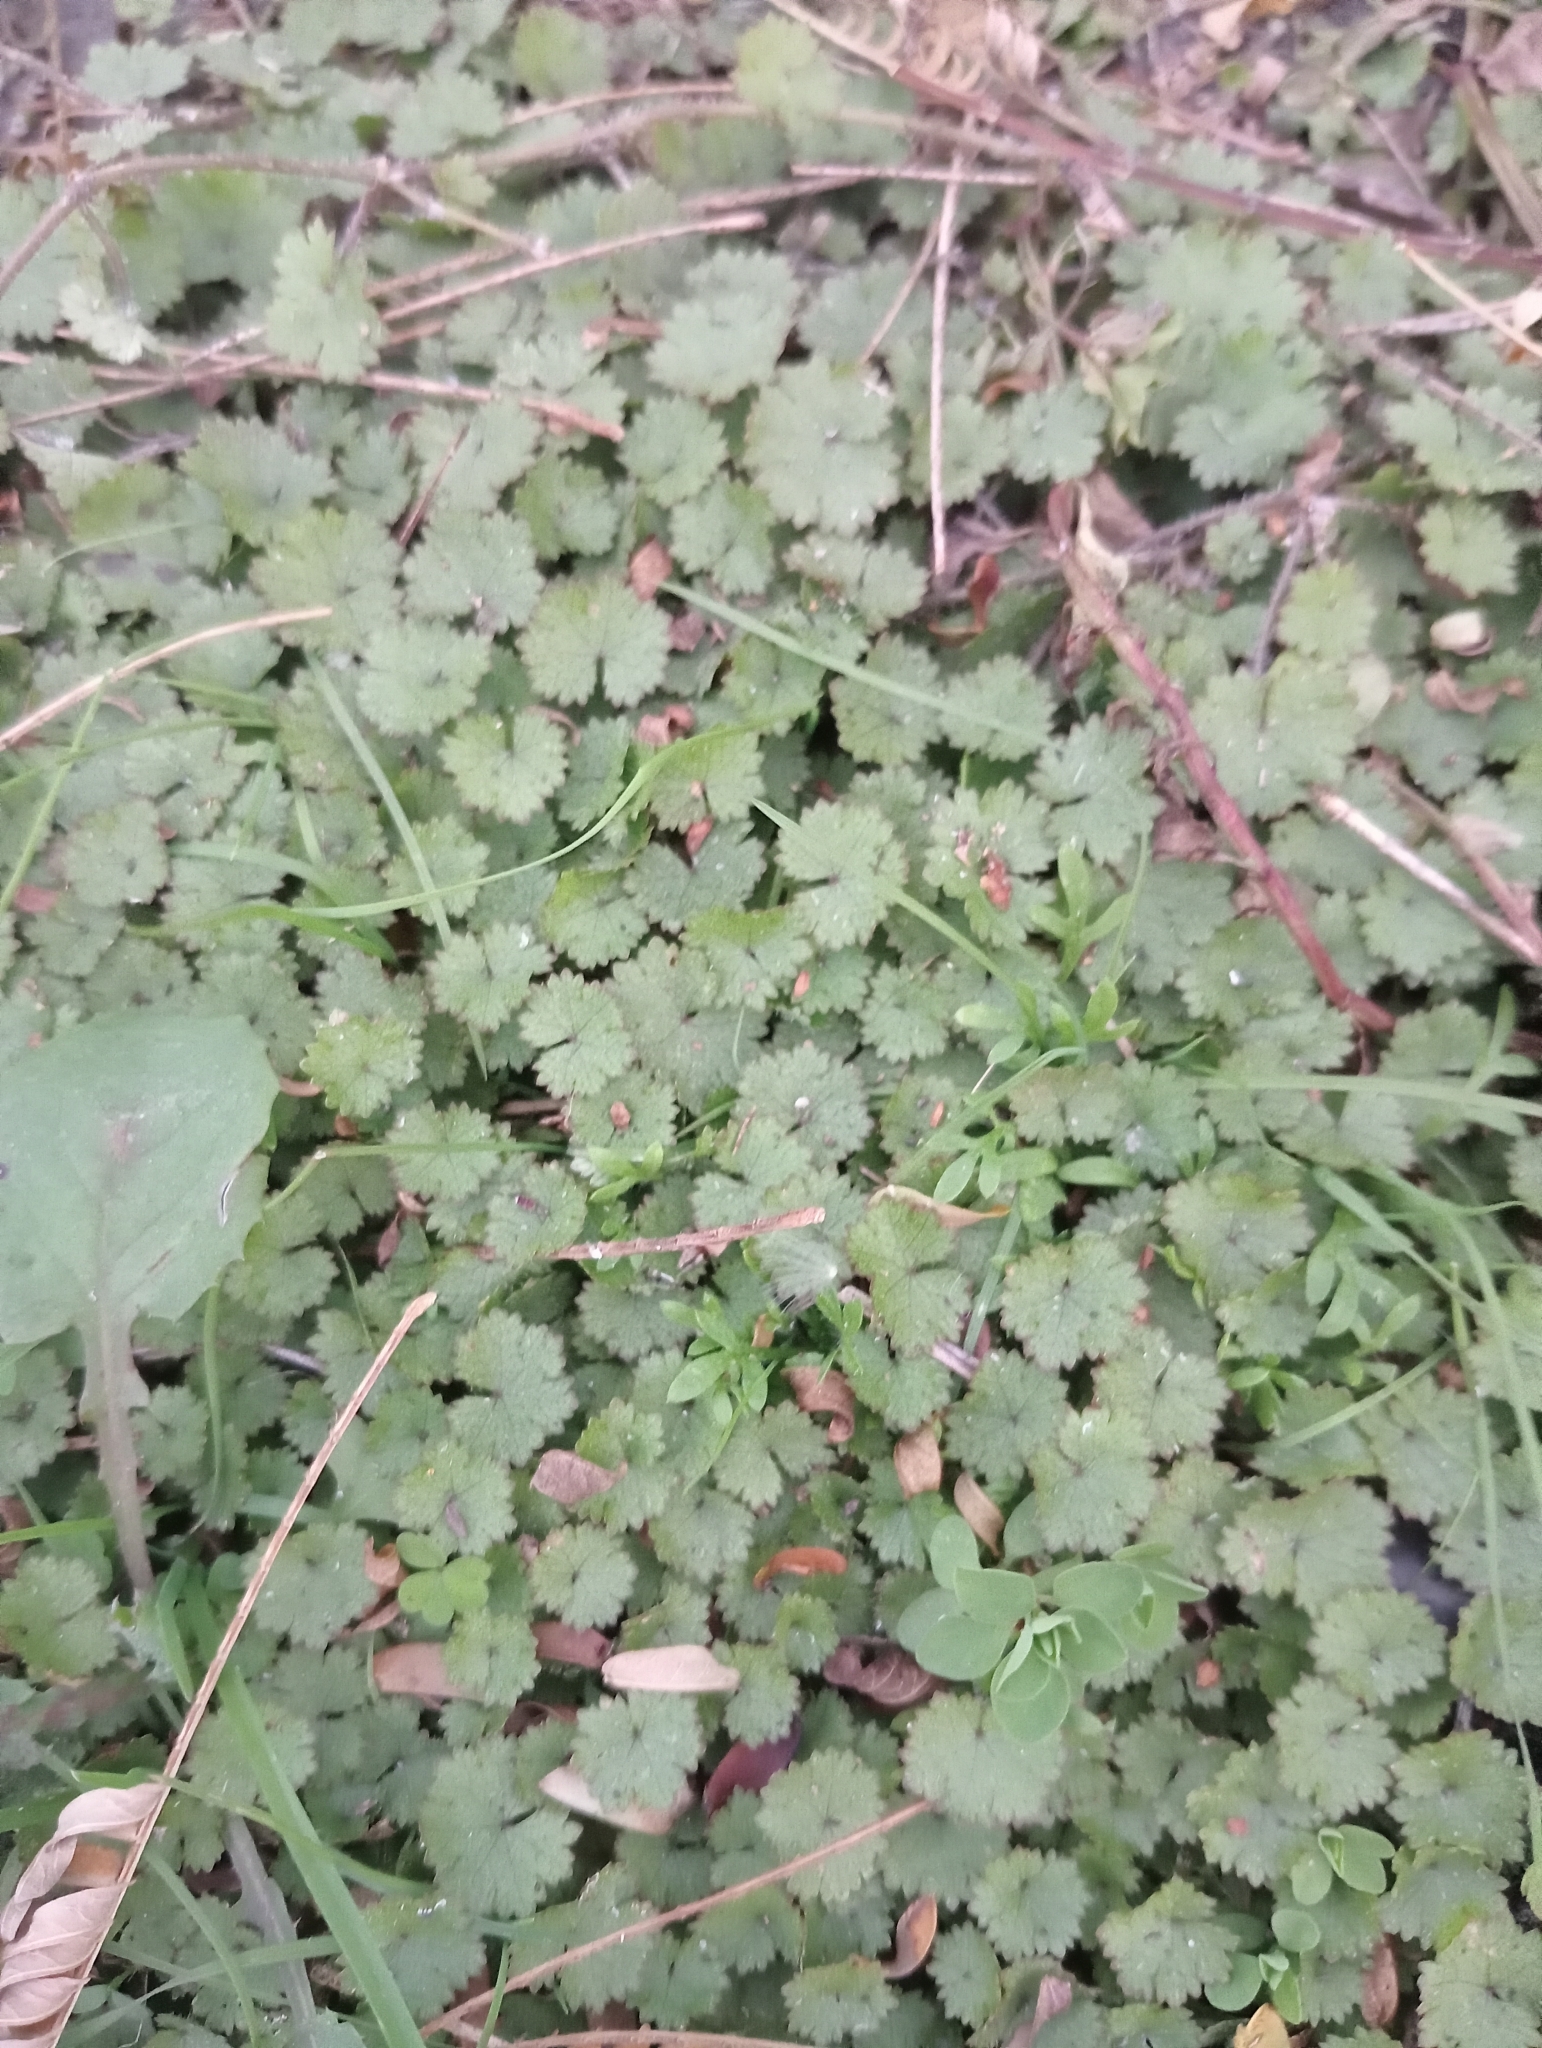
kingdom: Plantae
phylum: Tracheophyta
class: Magnoliopsida
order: Apiales
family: Araliaceae
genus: Hydrocotyle
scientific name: Hydrocotyle moschata
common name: Hairy pennywort
